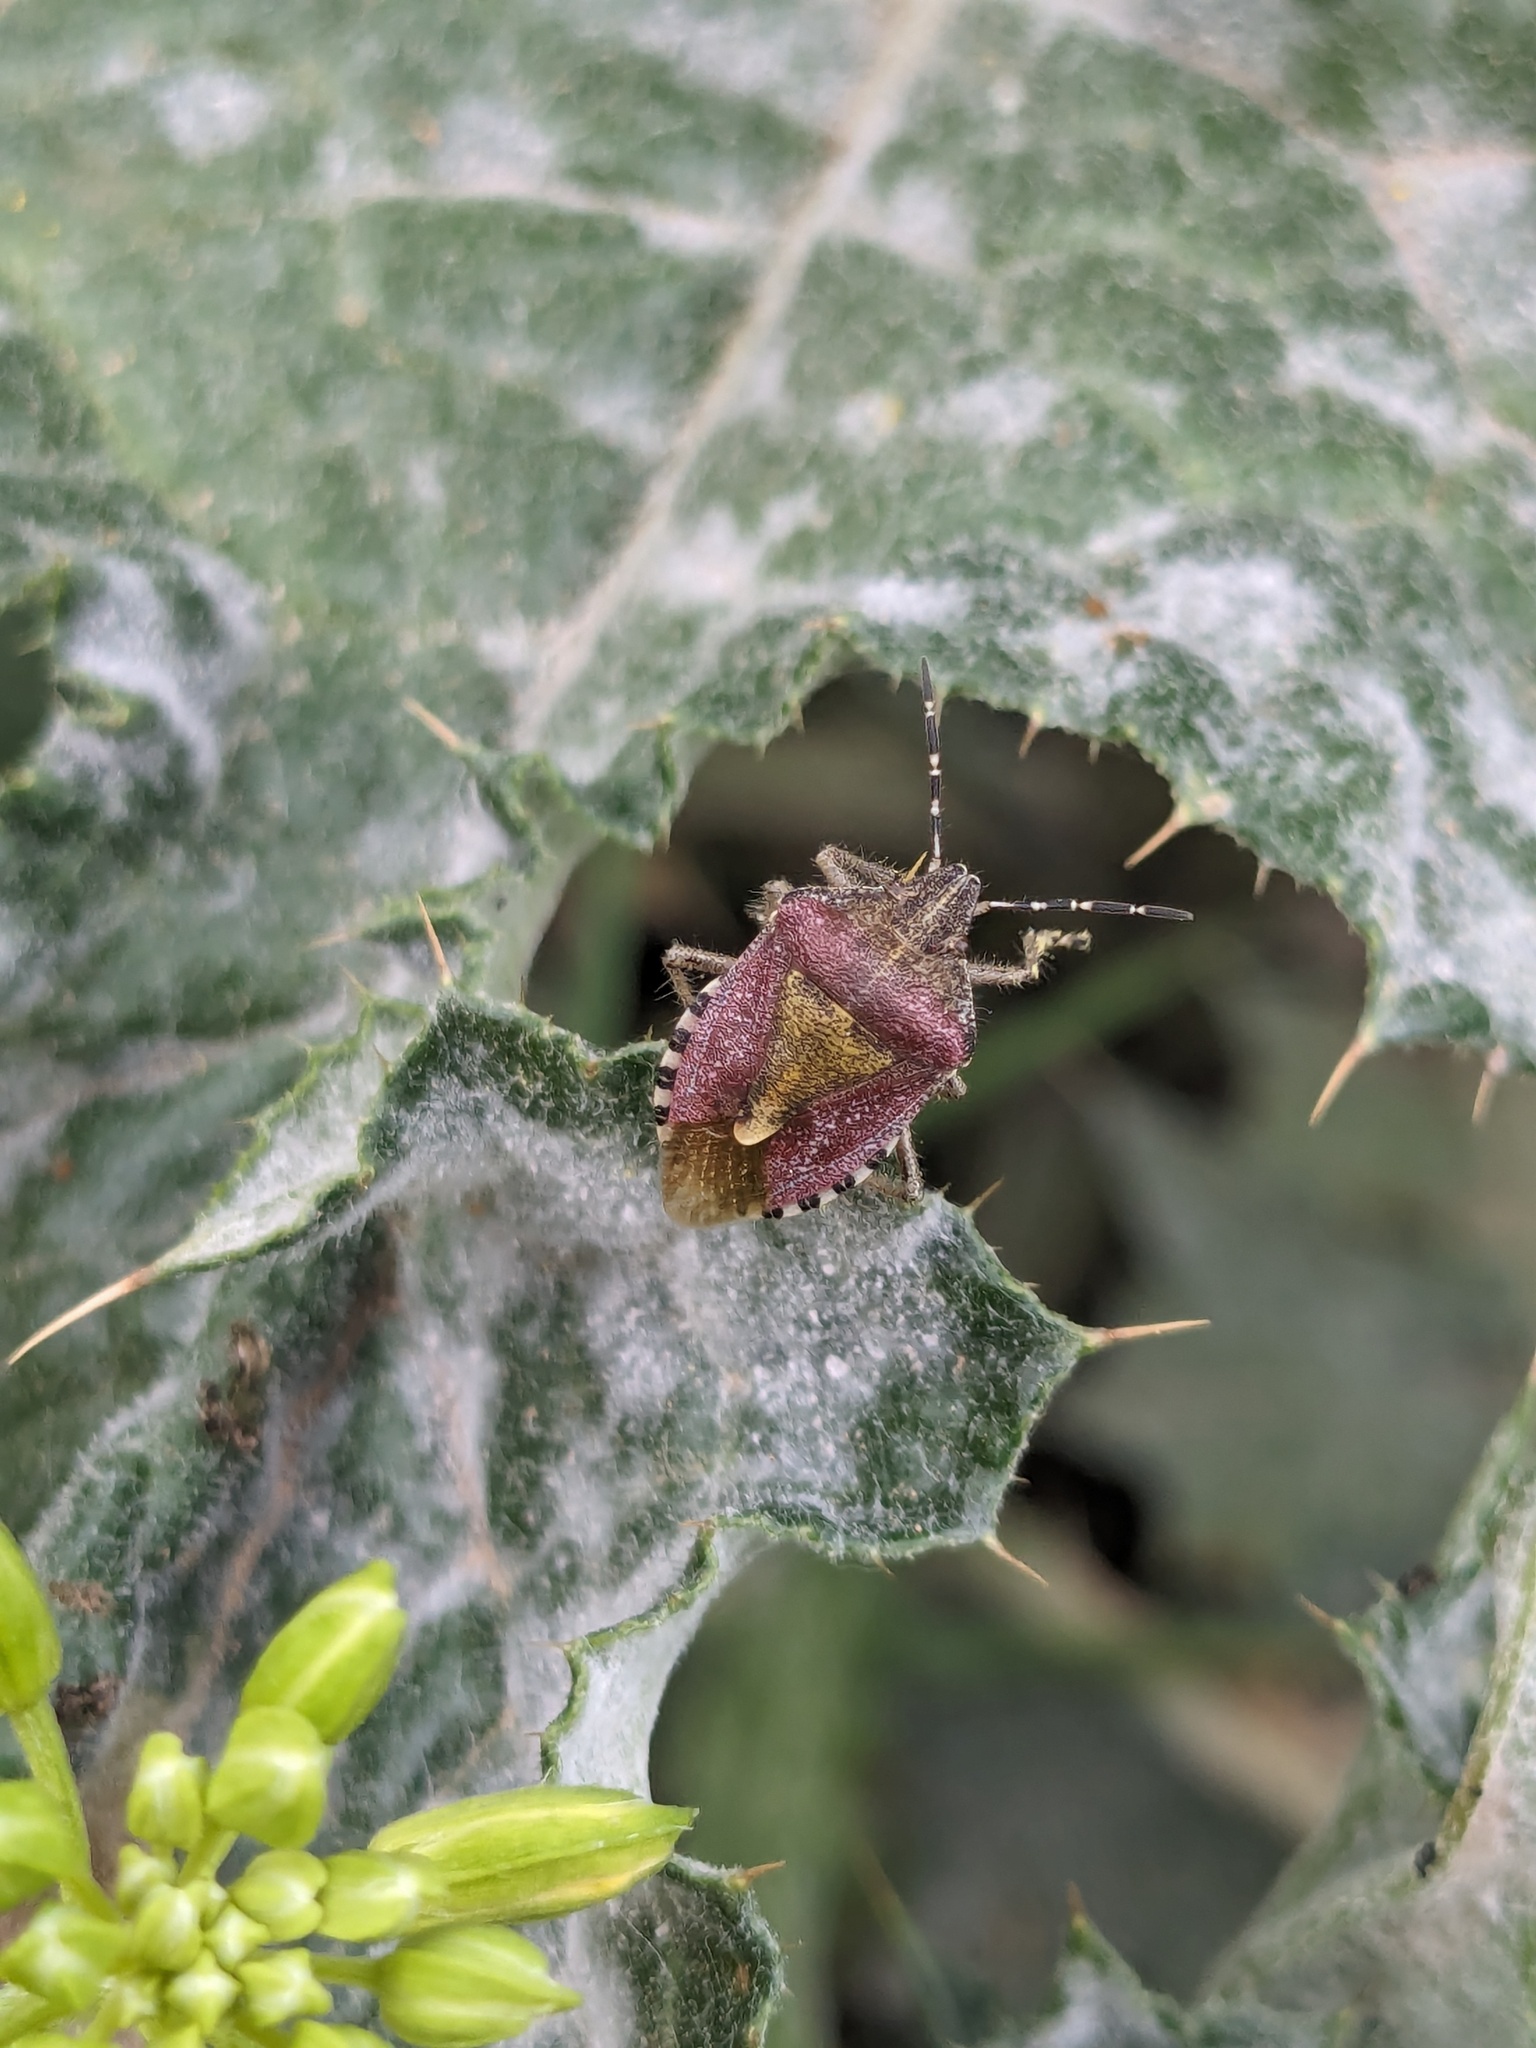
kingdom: Animalia
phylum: Arthropoda
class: Insecta
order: Hemiptera
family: Pentatomidae
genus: Dolycoris
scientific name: Dolycoris baccarum
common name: Sloe bug
